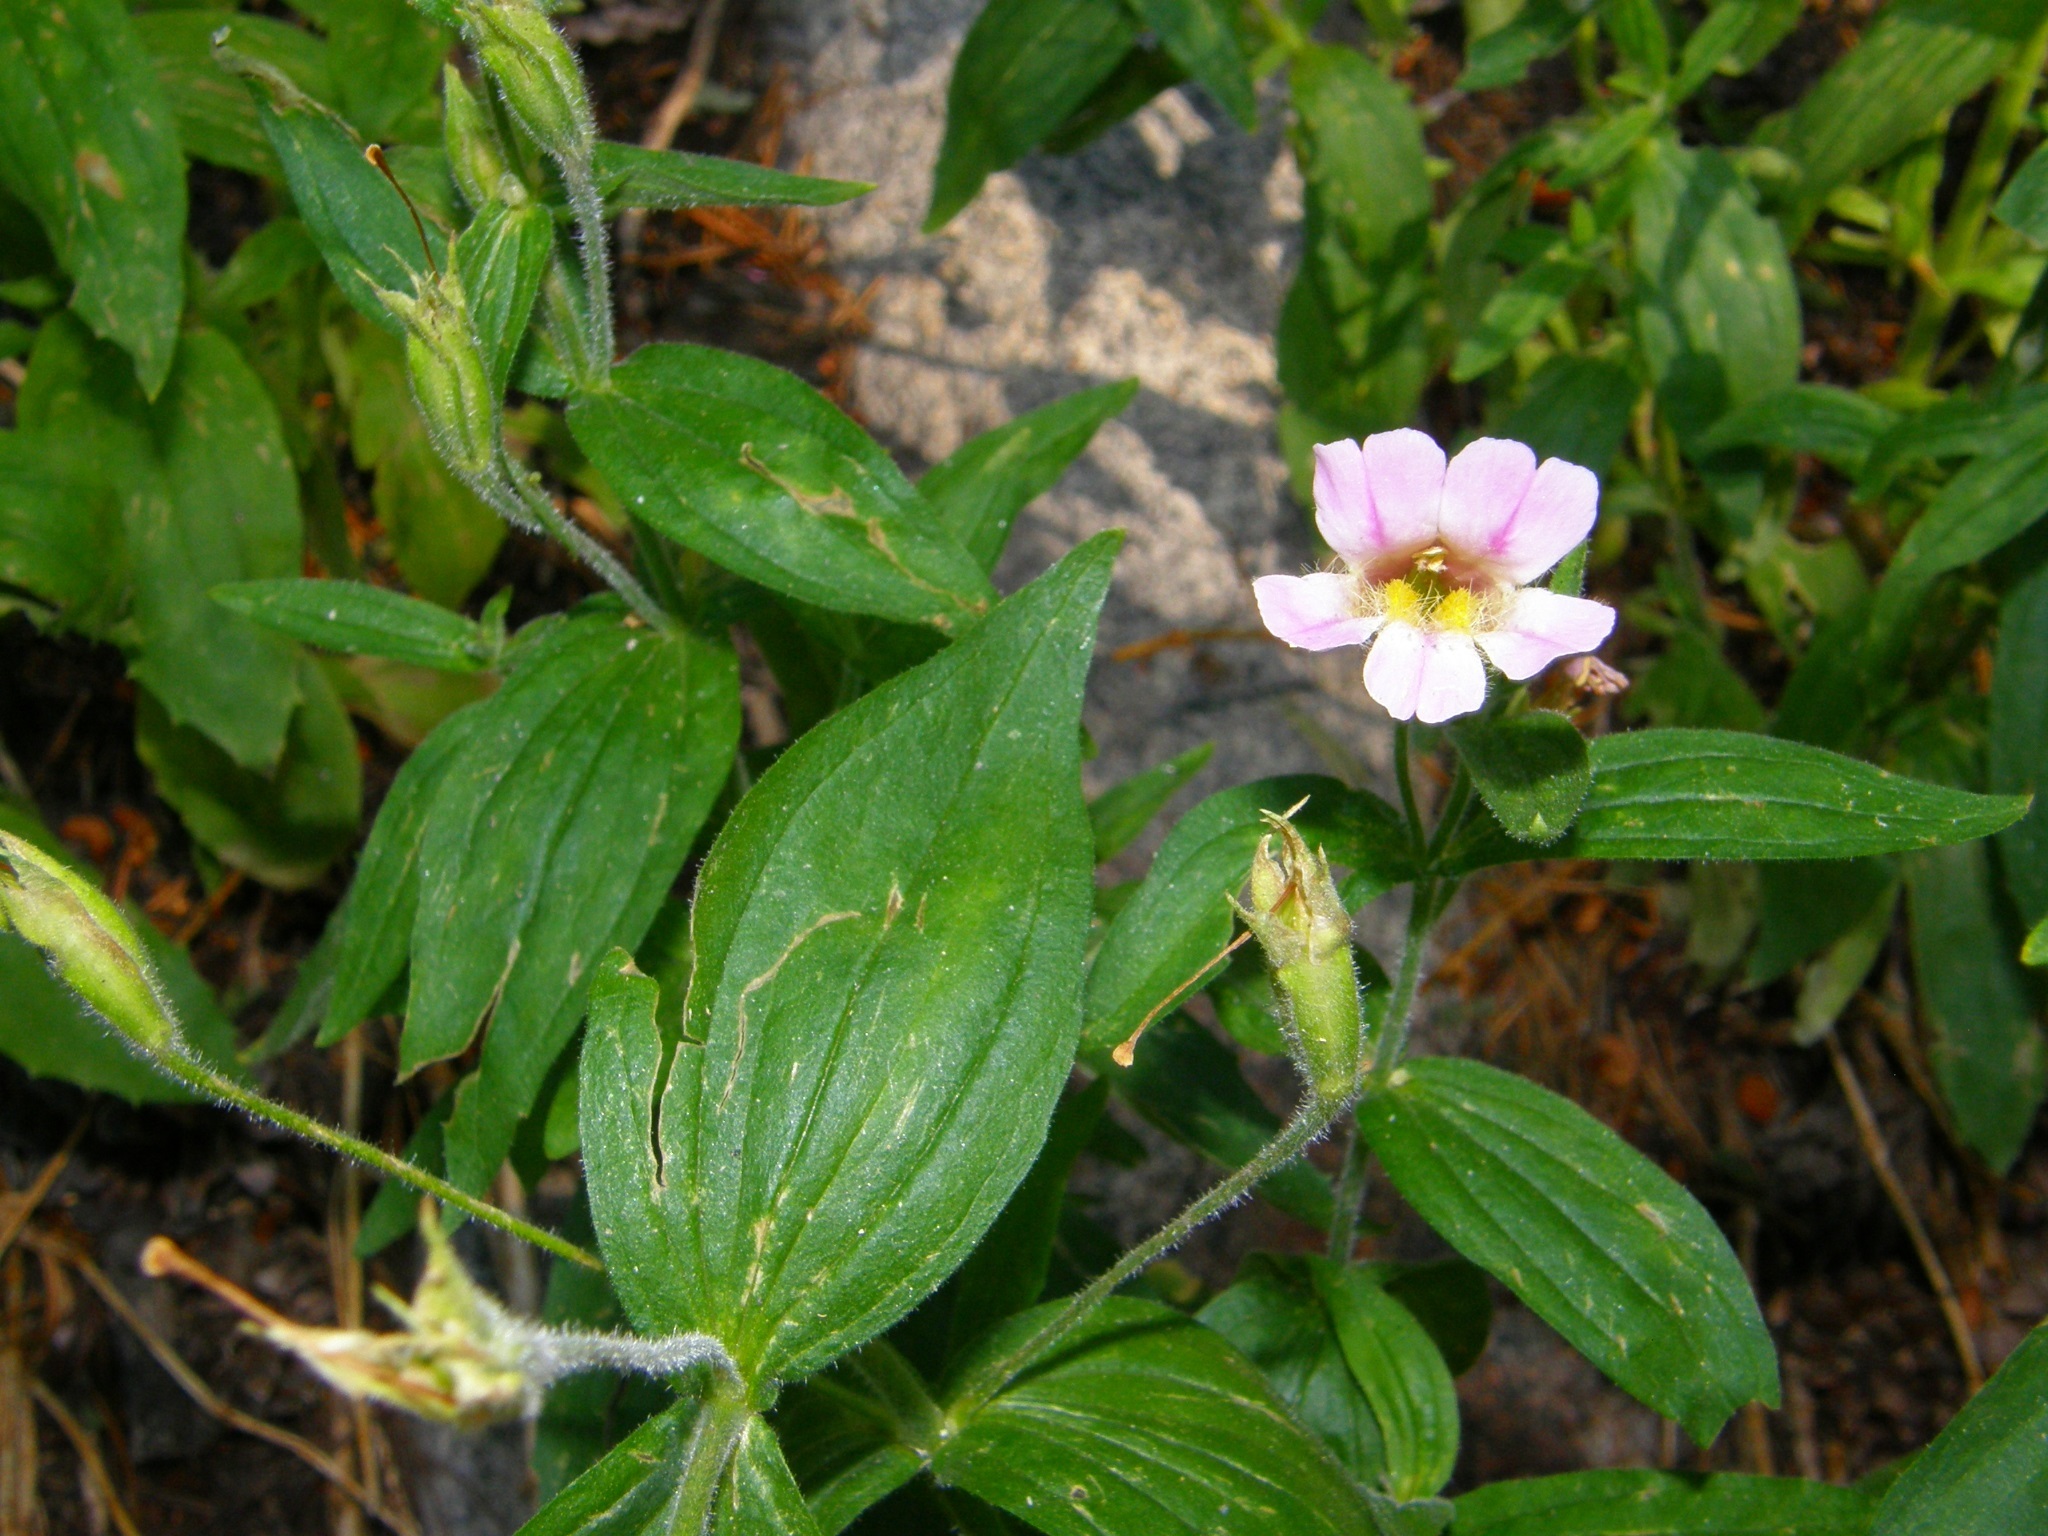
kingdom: Plantae
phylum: Tracheophyta
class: Magnoliopsida
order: Lamiales
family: Phrymaceae
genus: Erythranthe
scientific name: Erythranthe erubescens
